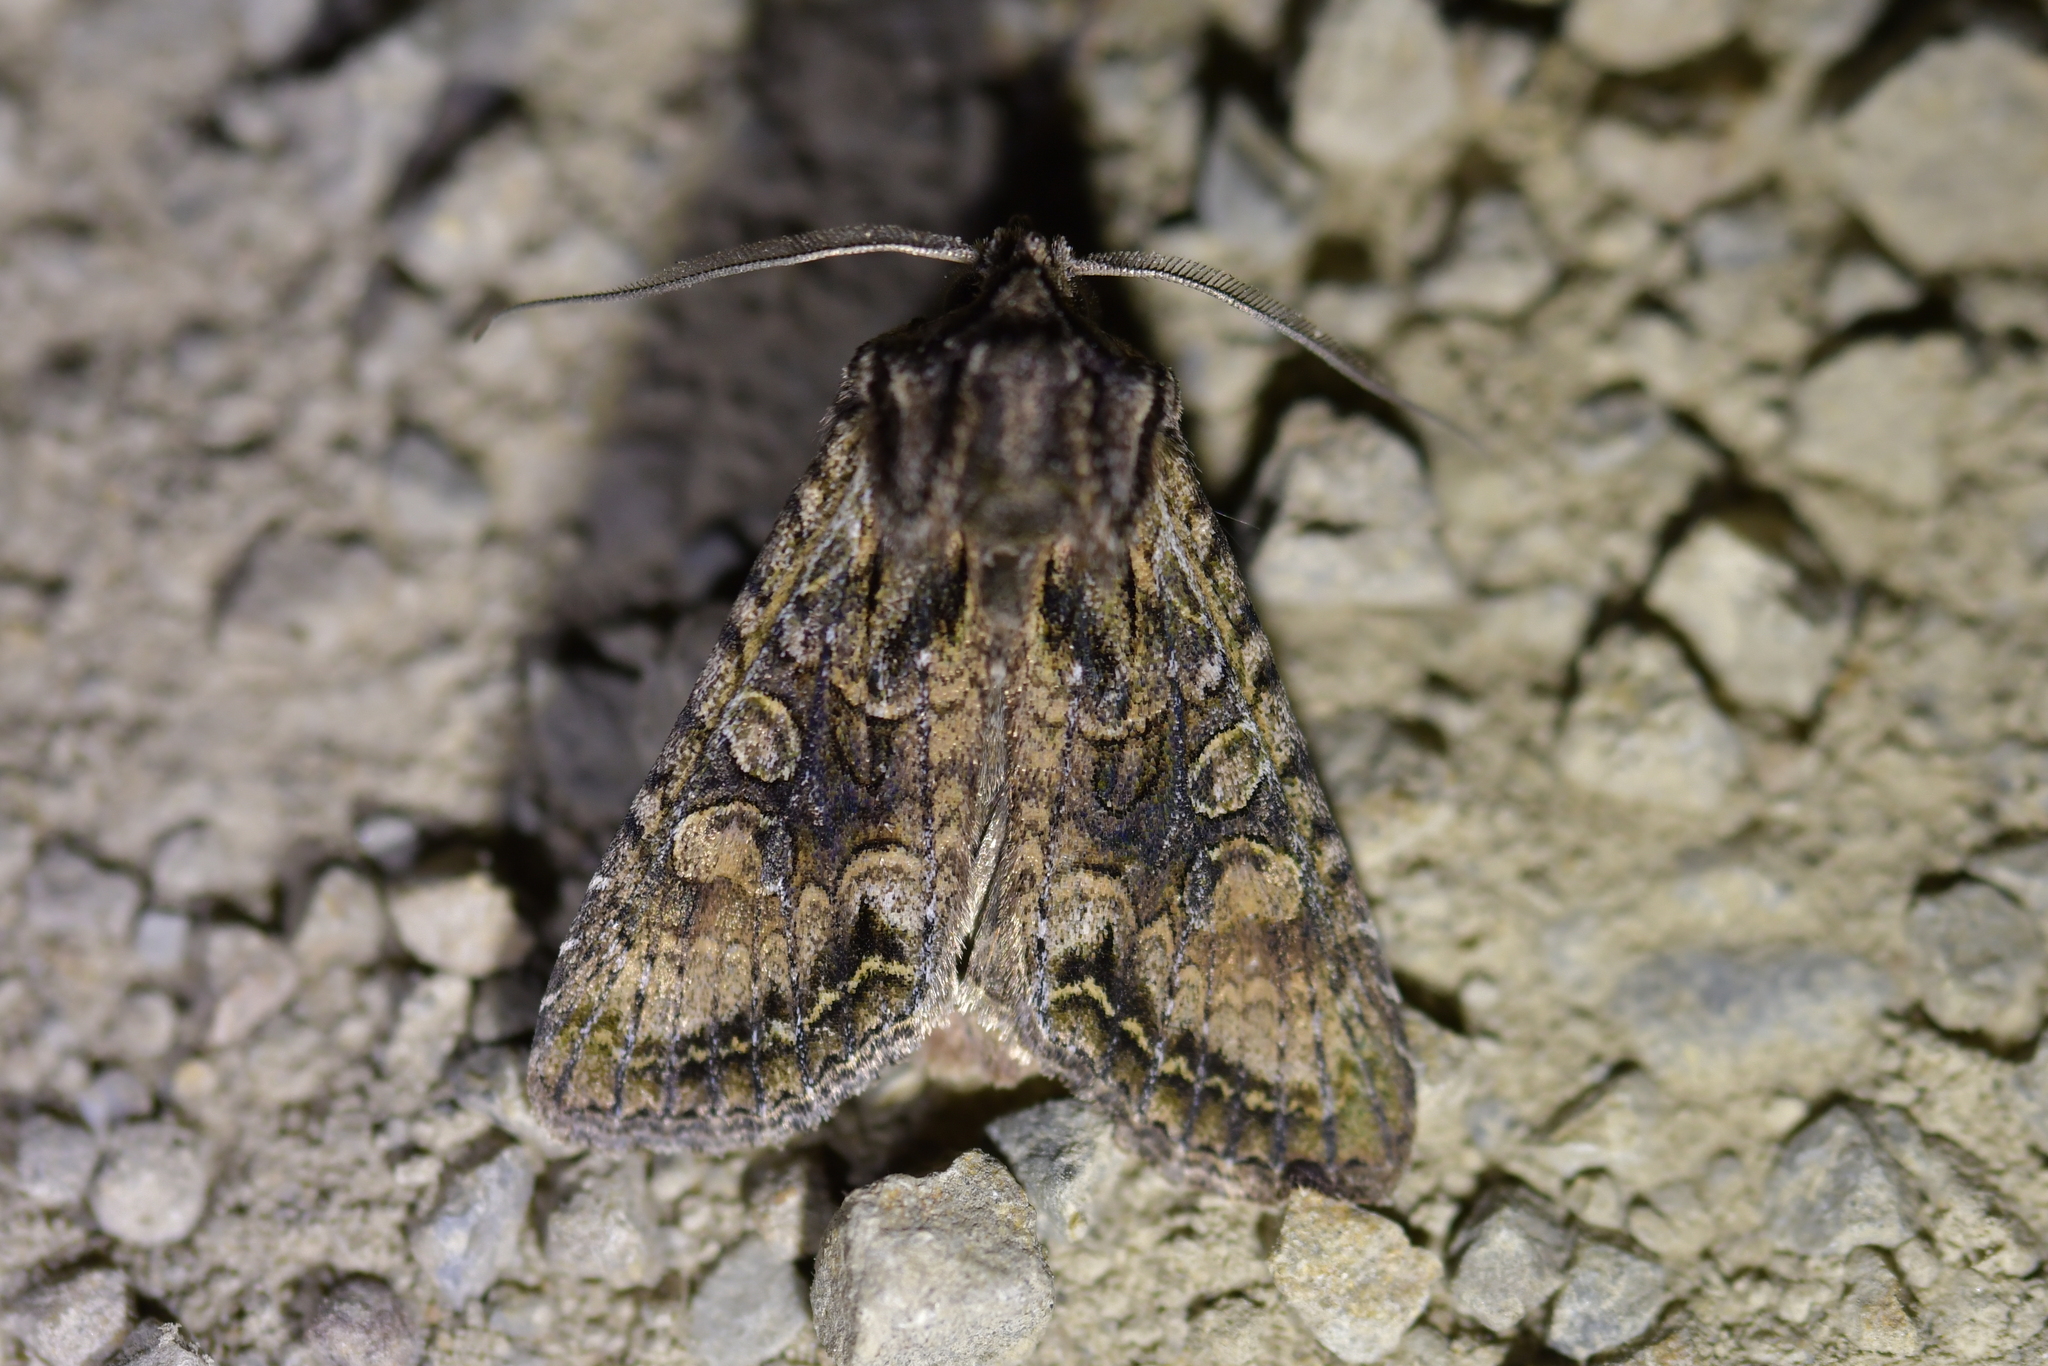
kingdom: Animalia
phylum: Arthropoda
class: Insecta
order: Lepidoptera
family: Noctuidae
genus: Ichneutica
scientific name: Ichneutica mutans
